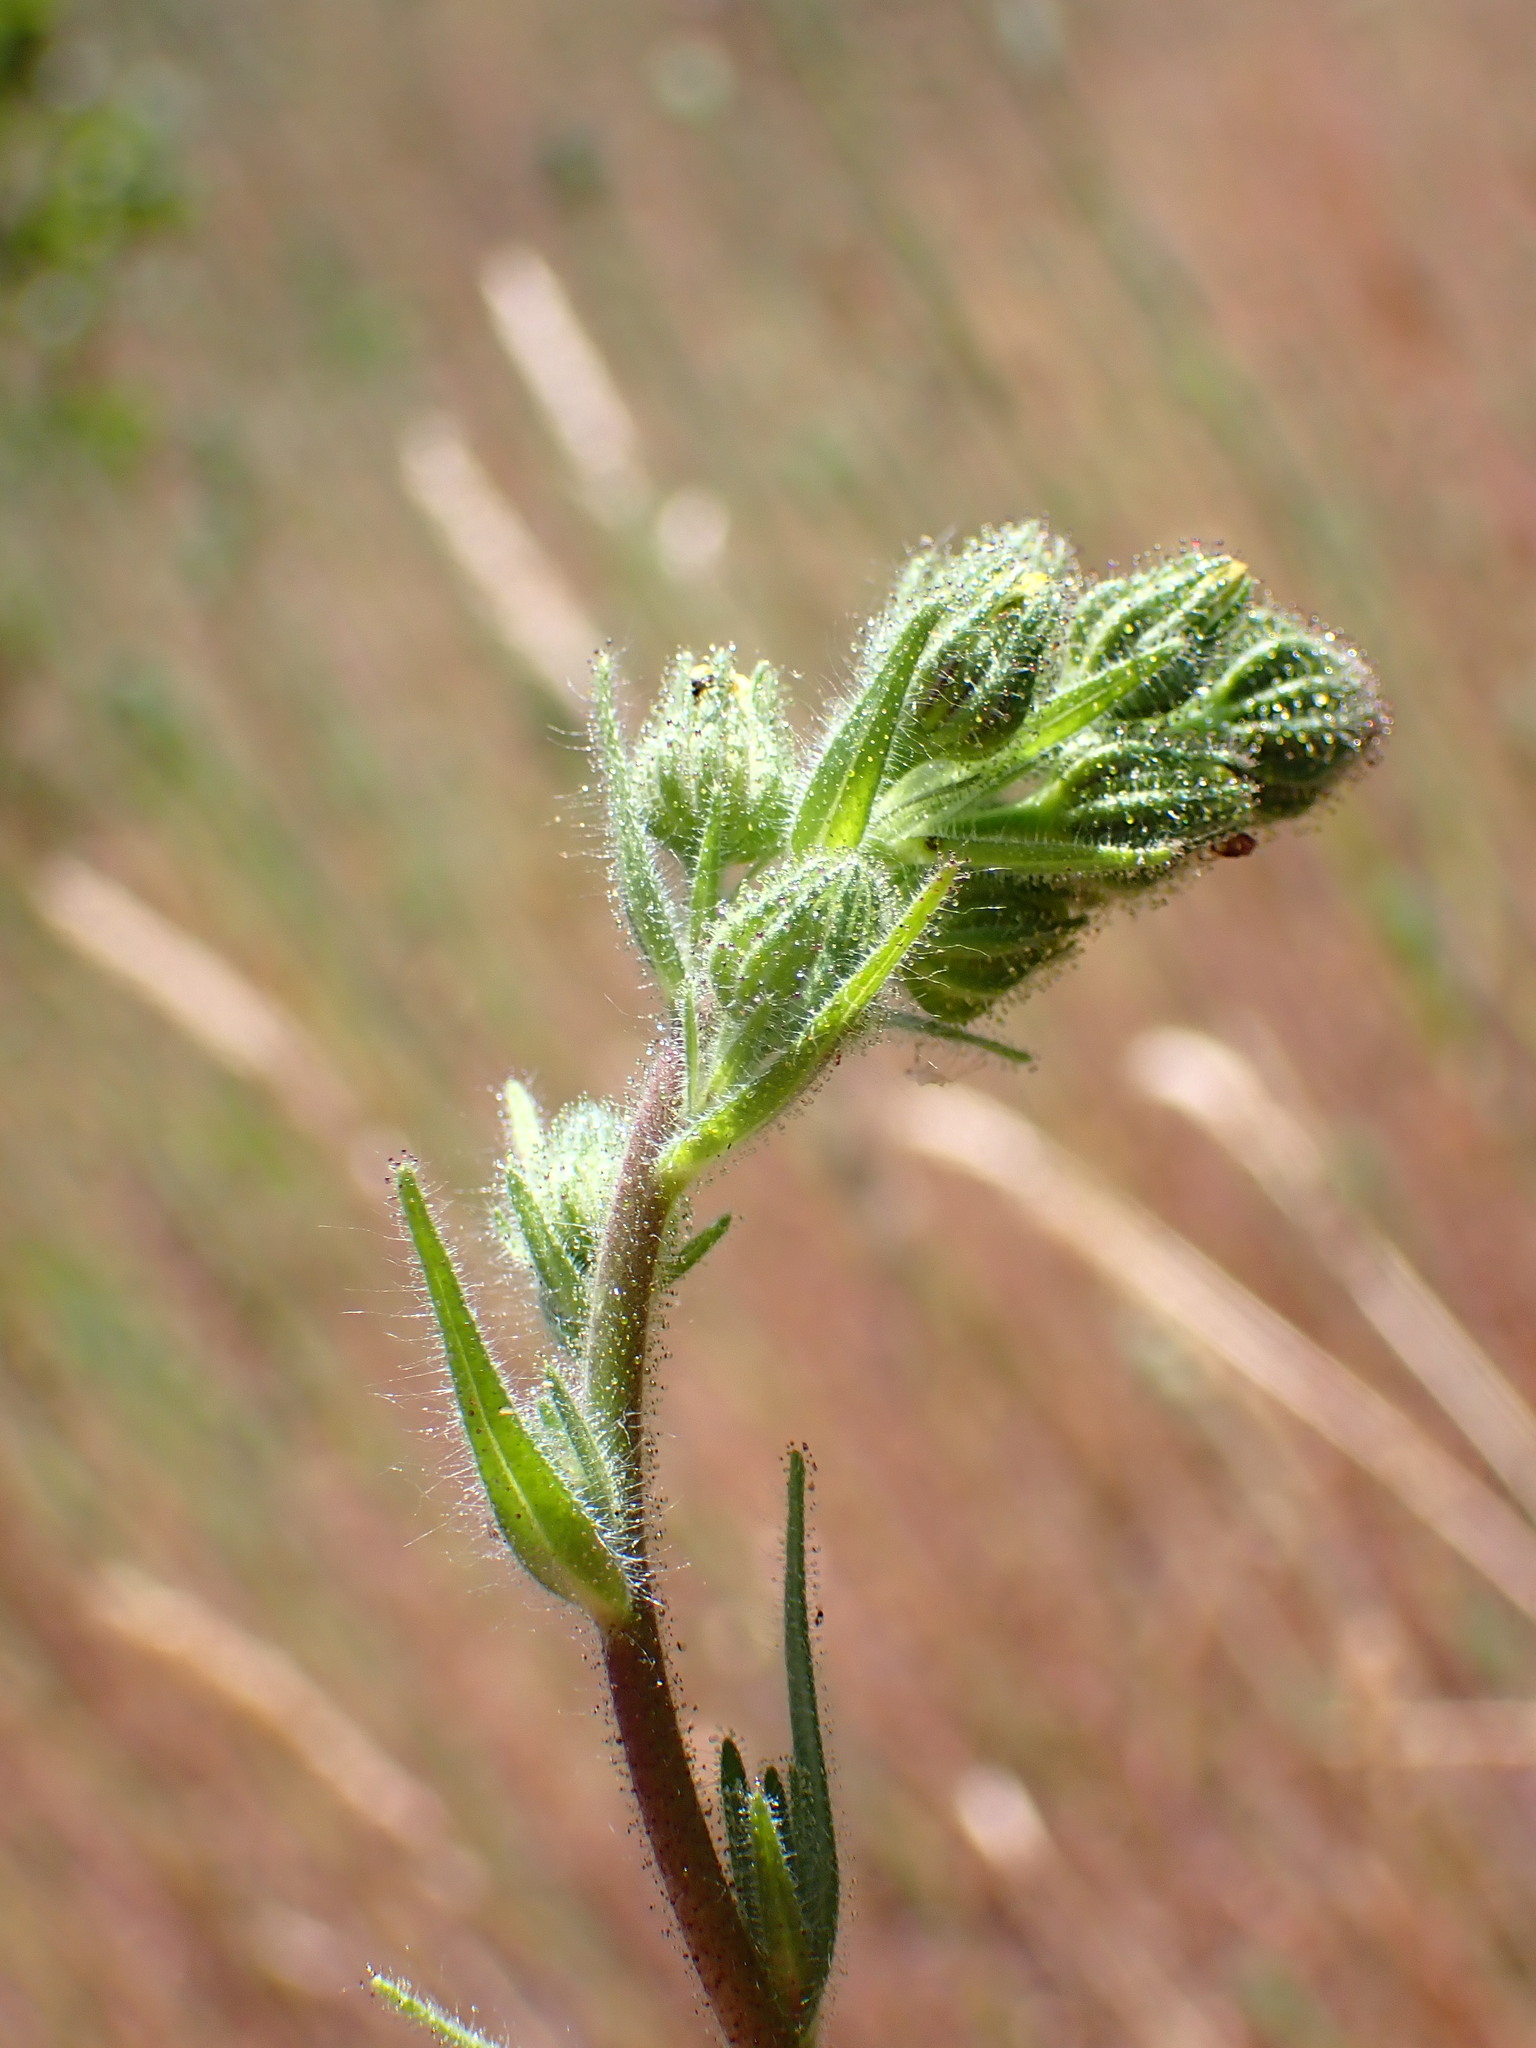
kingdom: Plantae
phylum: Tracheophyta
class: Magnoliopsida
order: Asterales
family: Asteraceae
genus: Madia
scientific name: Madia sativa
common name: Coast tarweed
